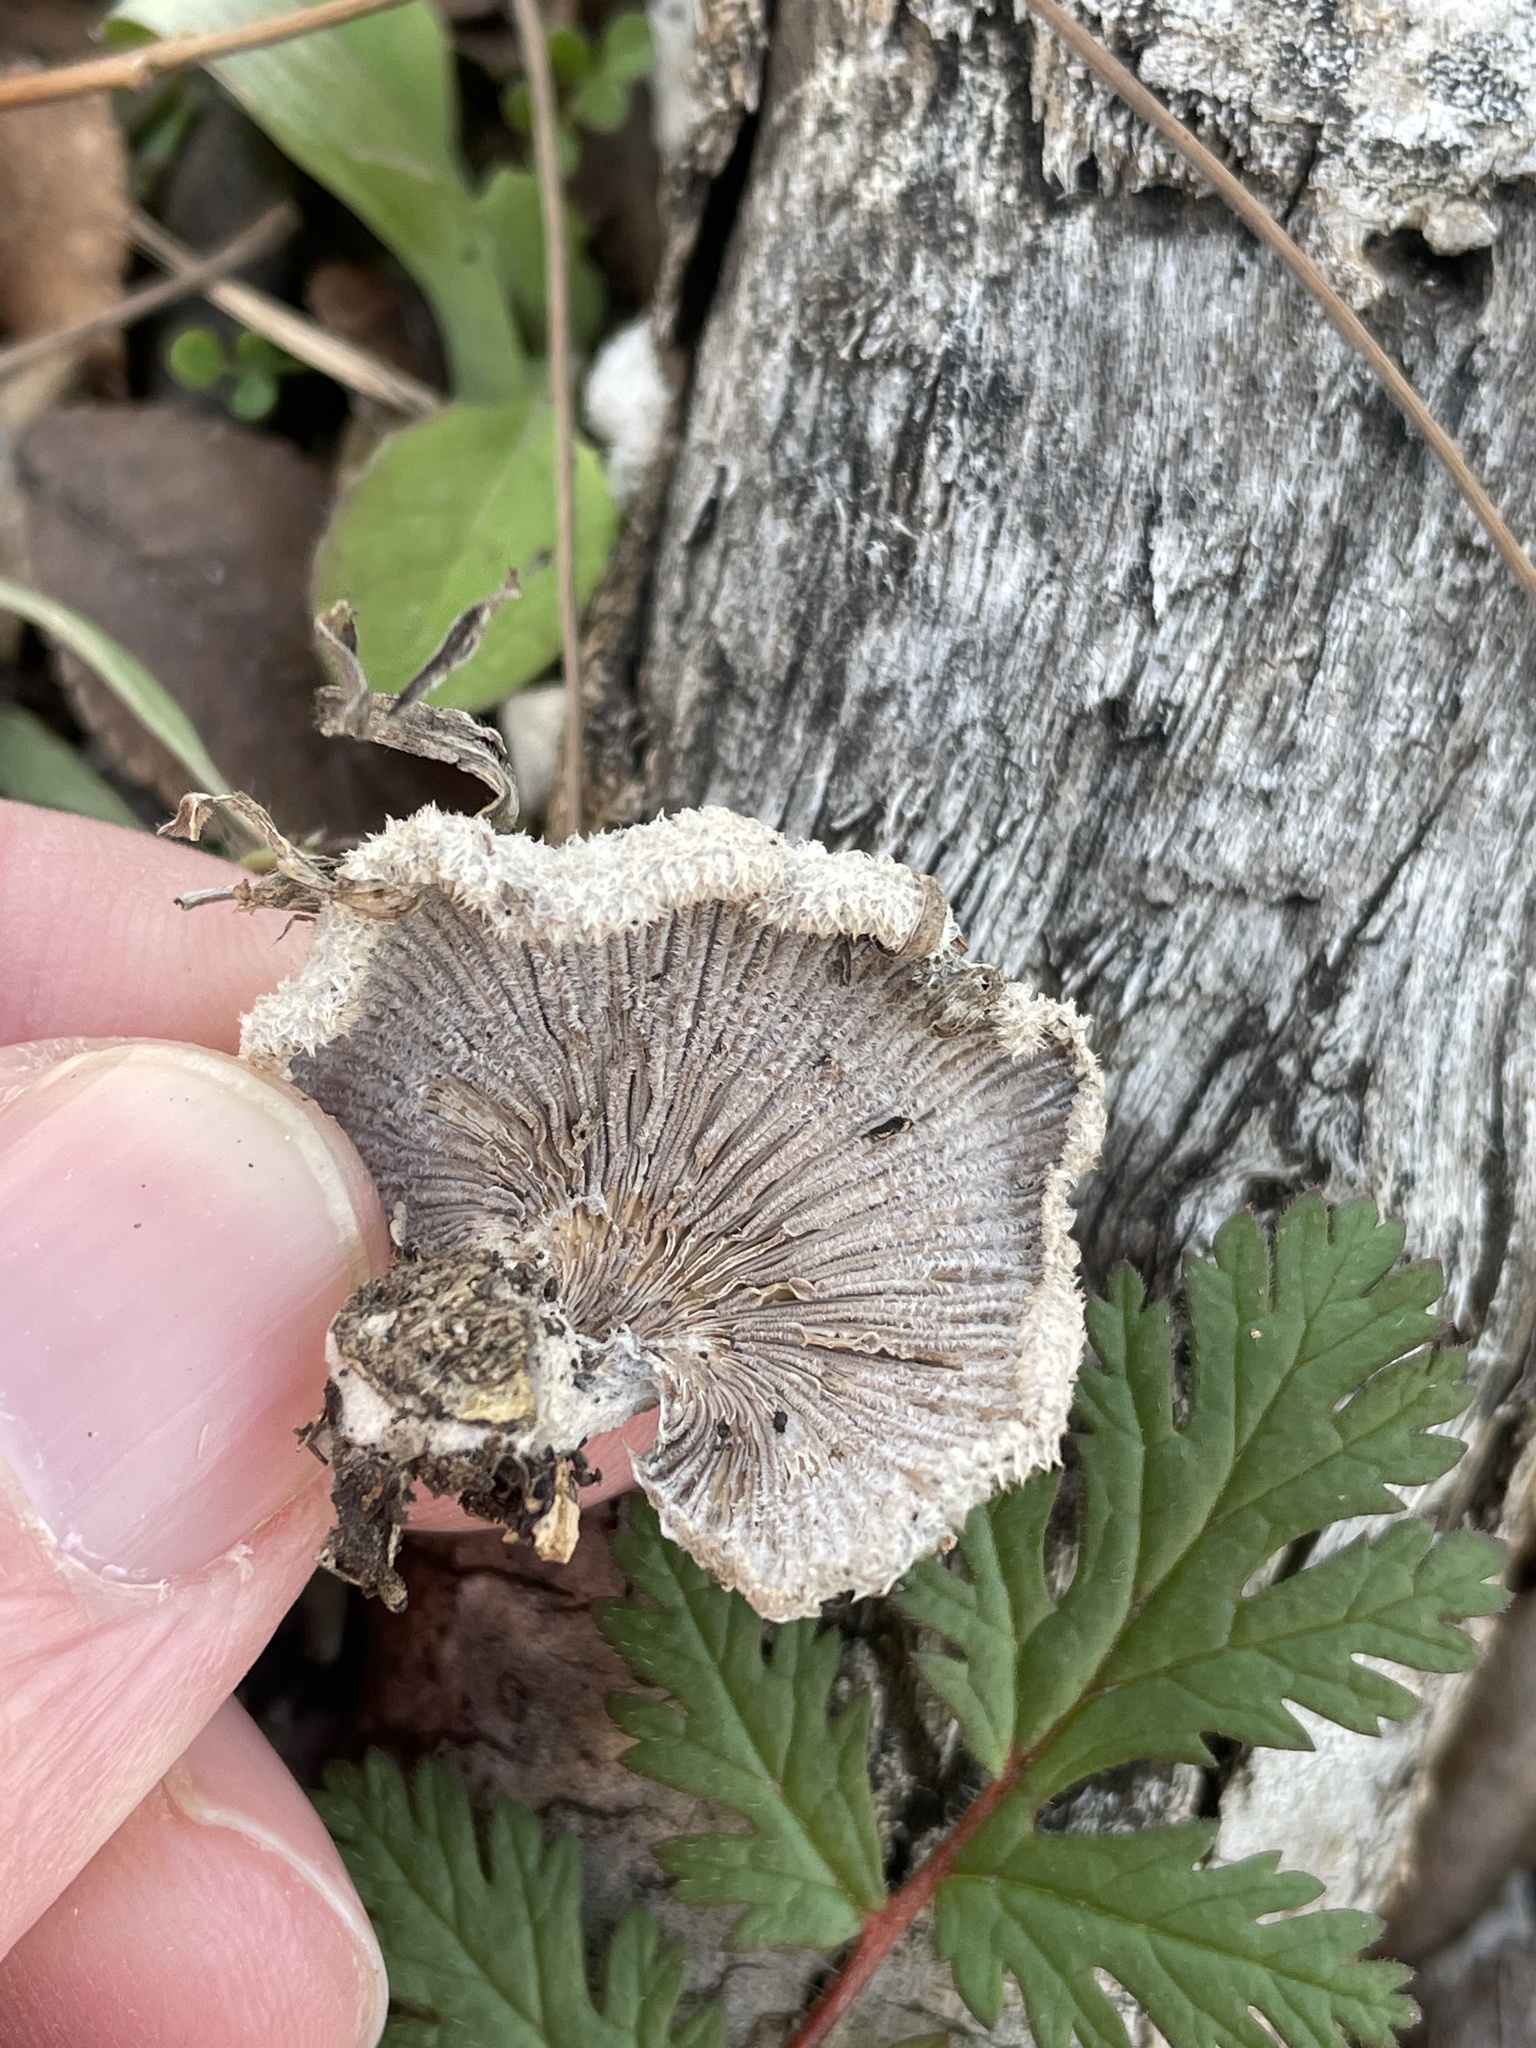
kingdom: Fungi
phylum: Basidiomycota
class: Agaricomycetes
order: Agaricales
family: Schizophyllaceae
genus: Schizophyllum
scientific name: Schizophyllum commune
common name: Common porecrust
